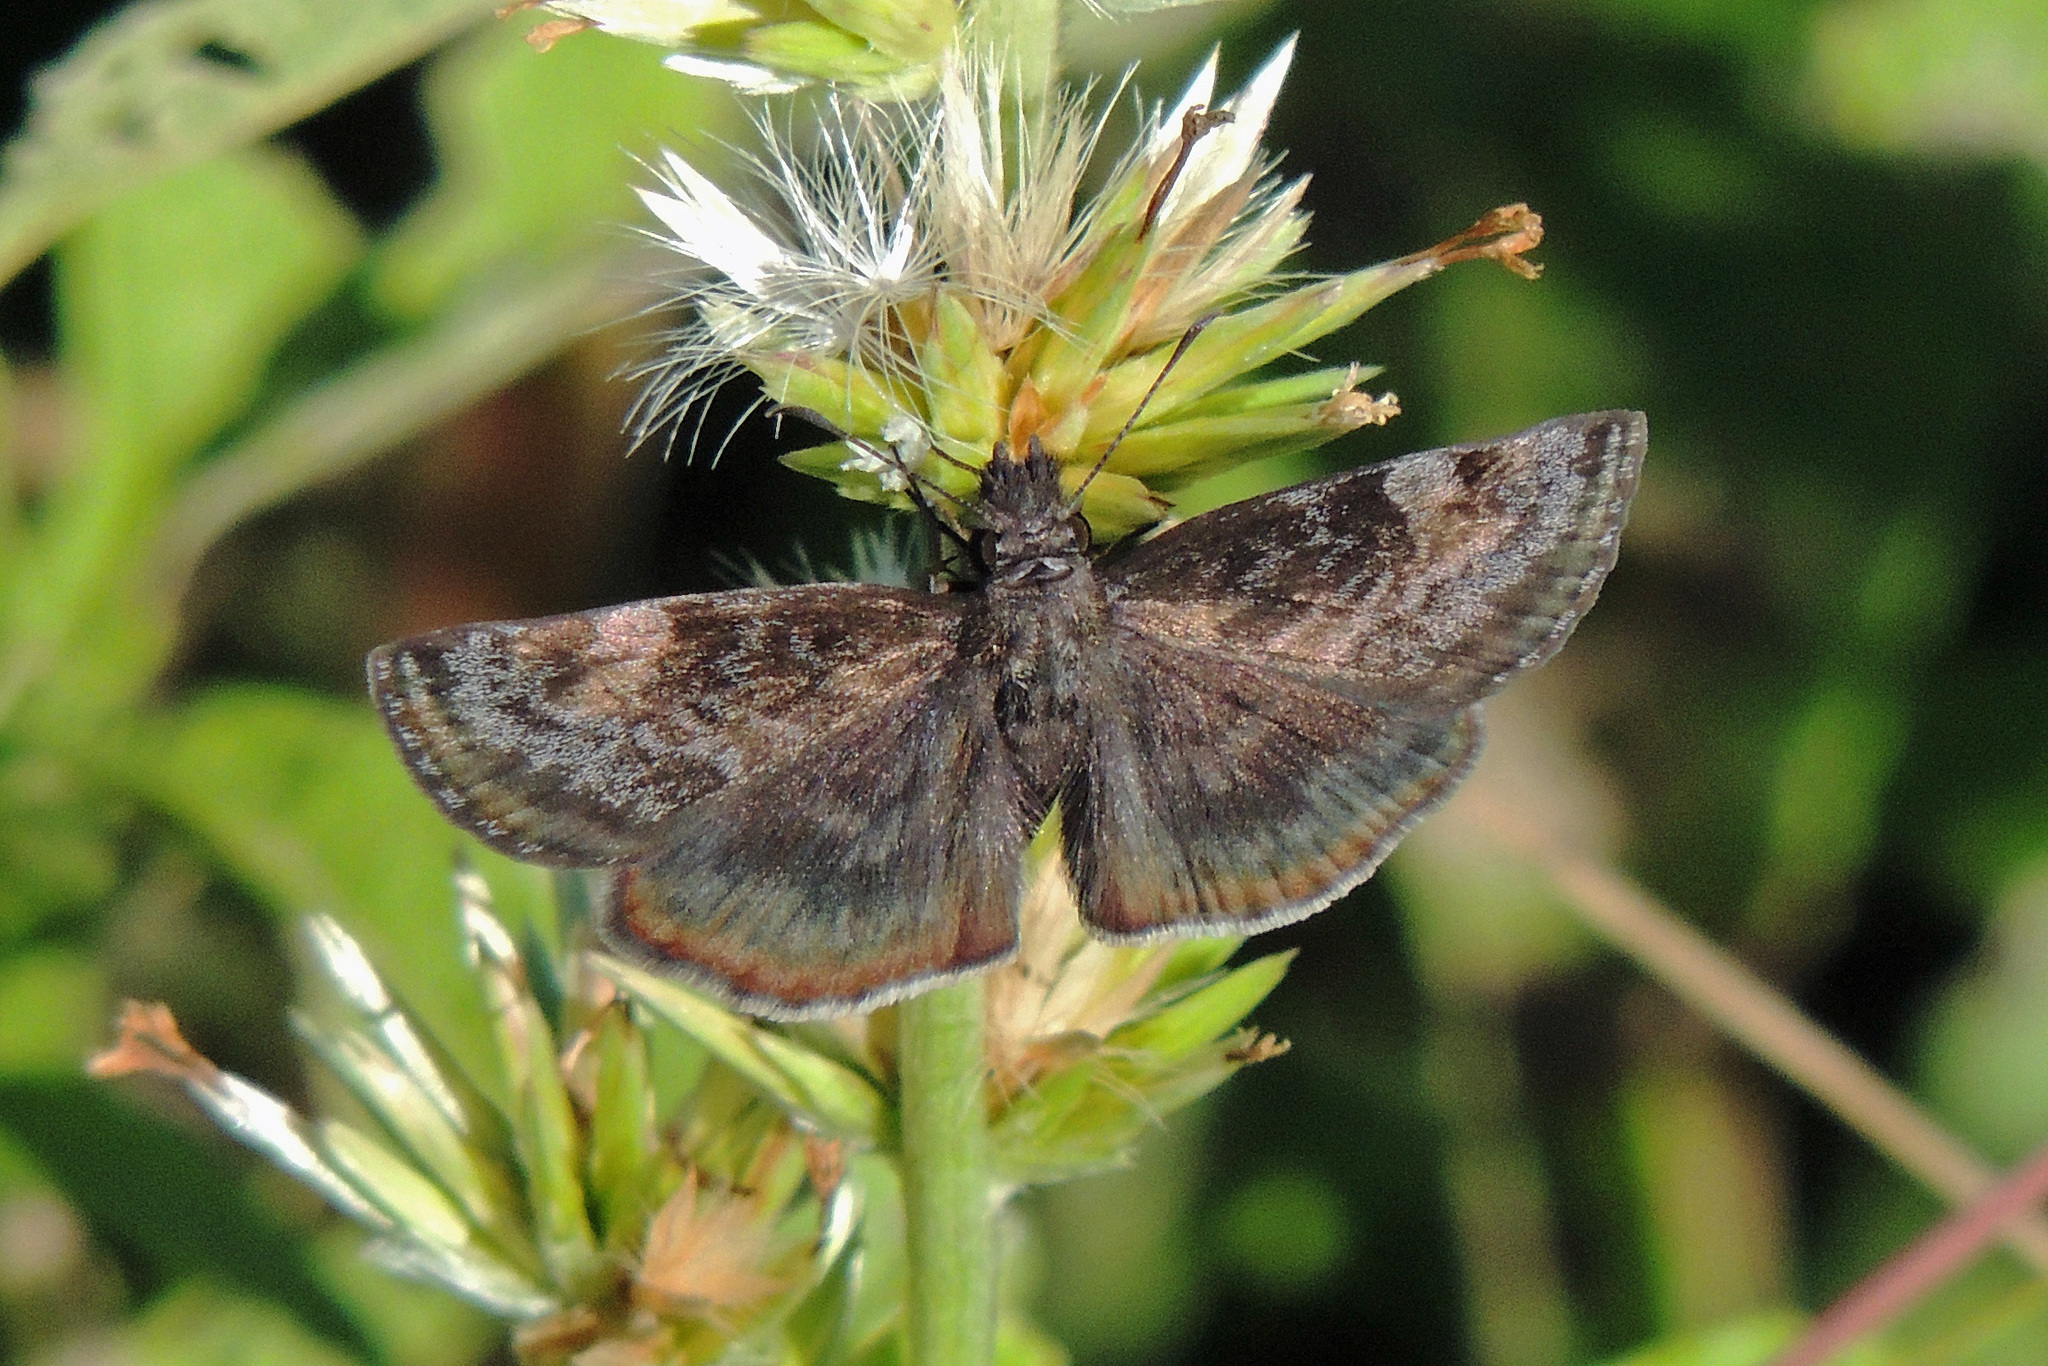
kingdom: Animalia
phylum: Arthropoda
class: Insecta
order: Lepidoptera
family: Hesperiidae
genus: Gesta
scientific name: Gesta gesta
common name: Gesta duskywing
